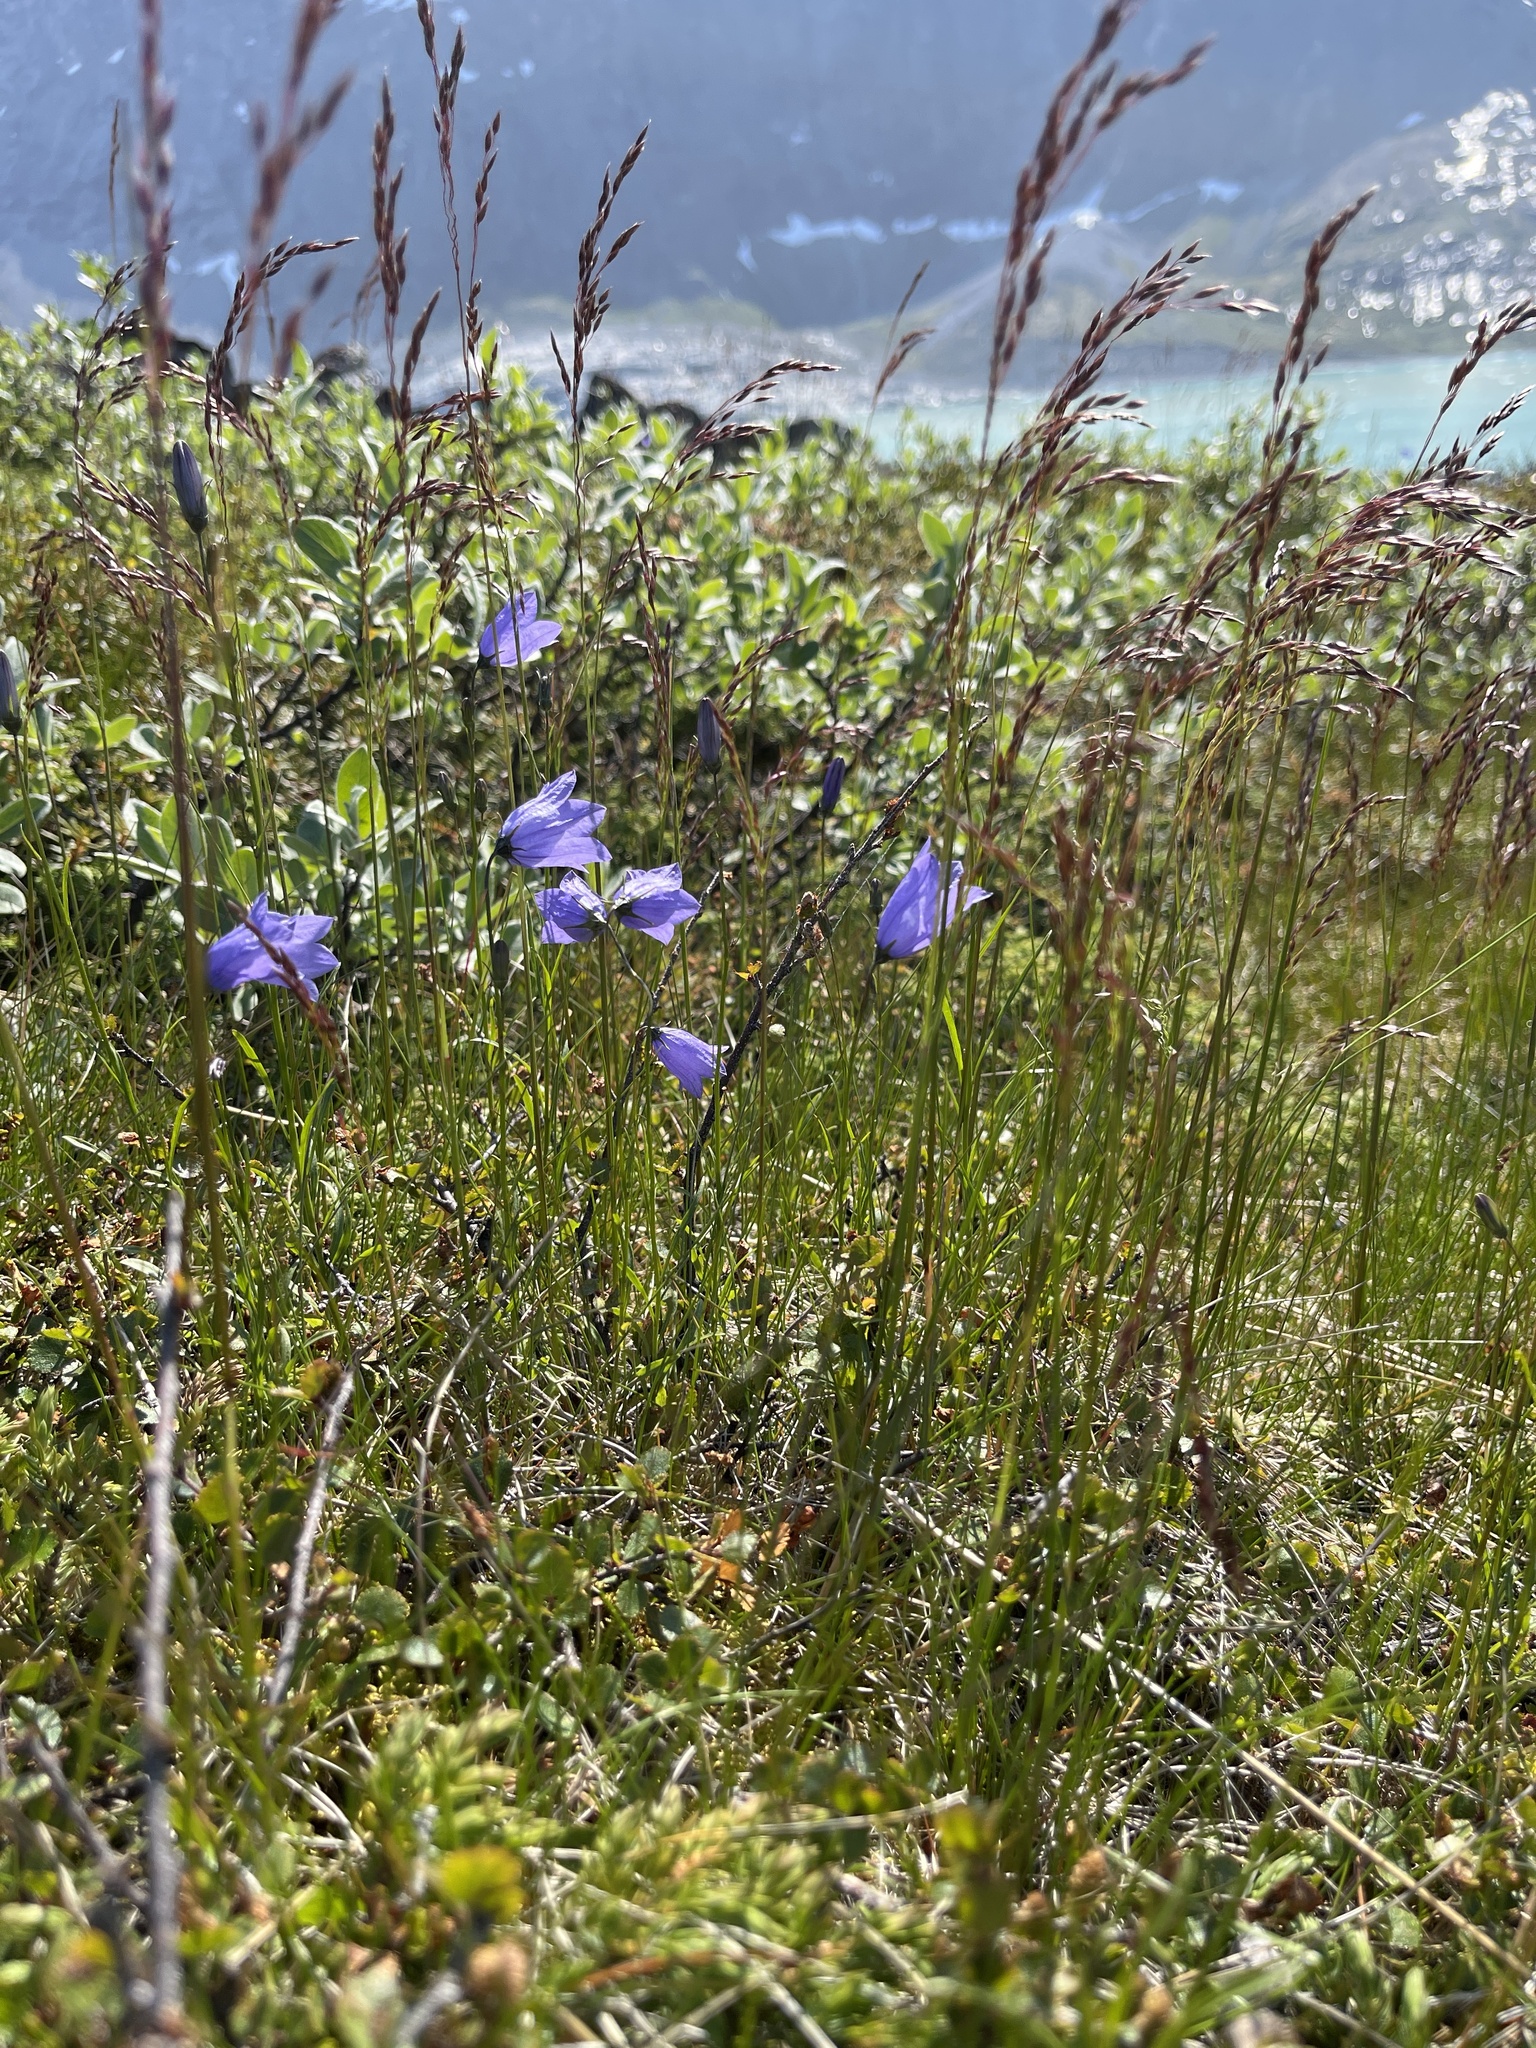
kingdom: Plantae
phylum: Tracheophyta
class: Magnoliopsida
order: Asterales
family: Campanulaceae
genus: Campanula
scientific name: Campanula giesekiana
